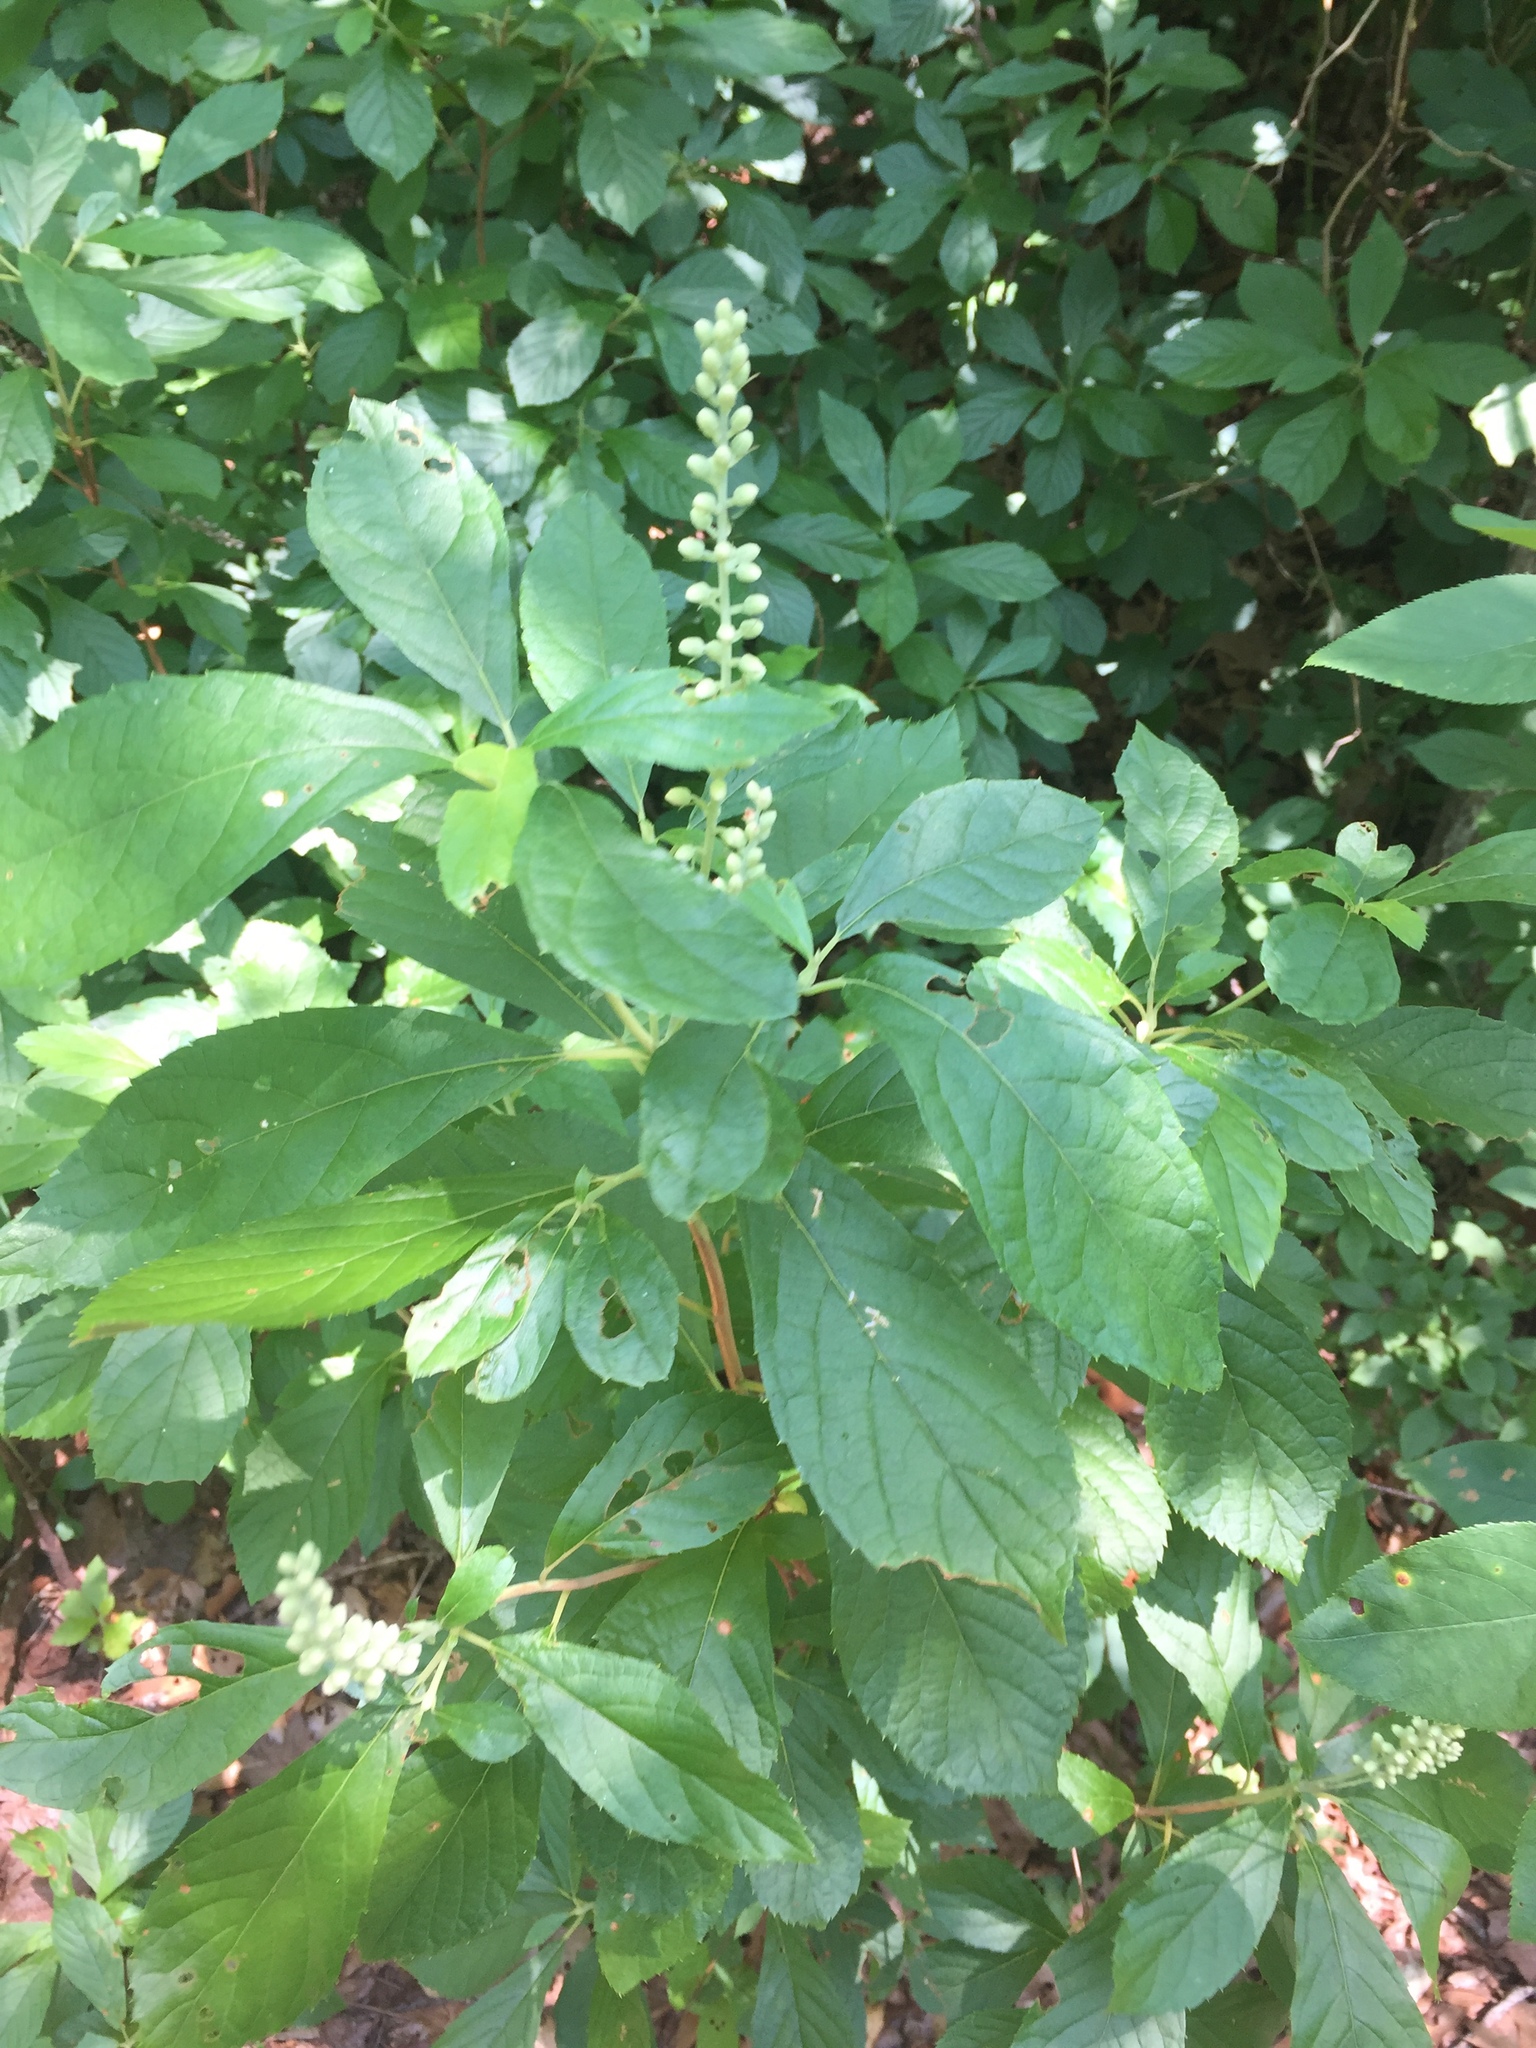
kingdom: Plantae
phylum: Tracheophyta
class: Magnoliopsida
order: Ericales
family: Clethraceae
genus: Clethra
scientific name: Clethra alnifolia
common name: Sweet pepperbush
